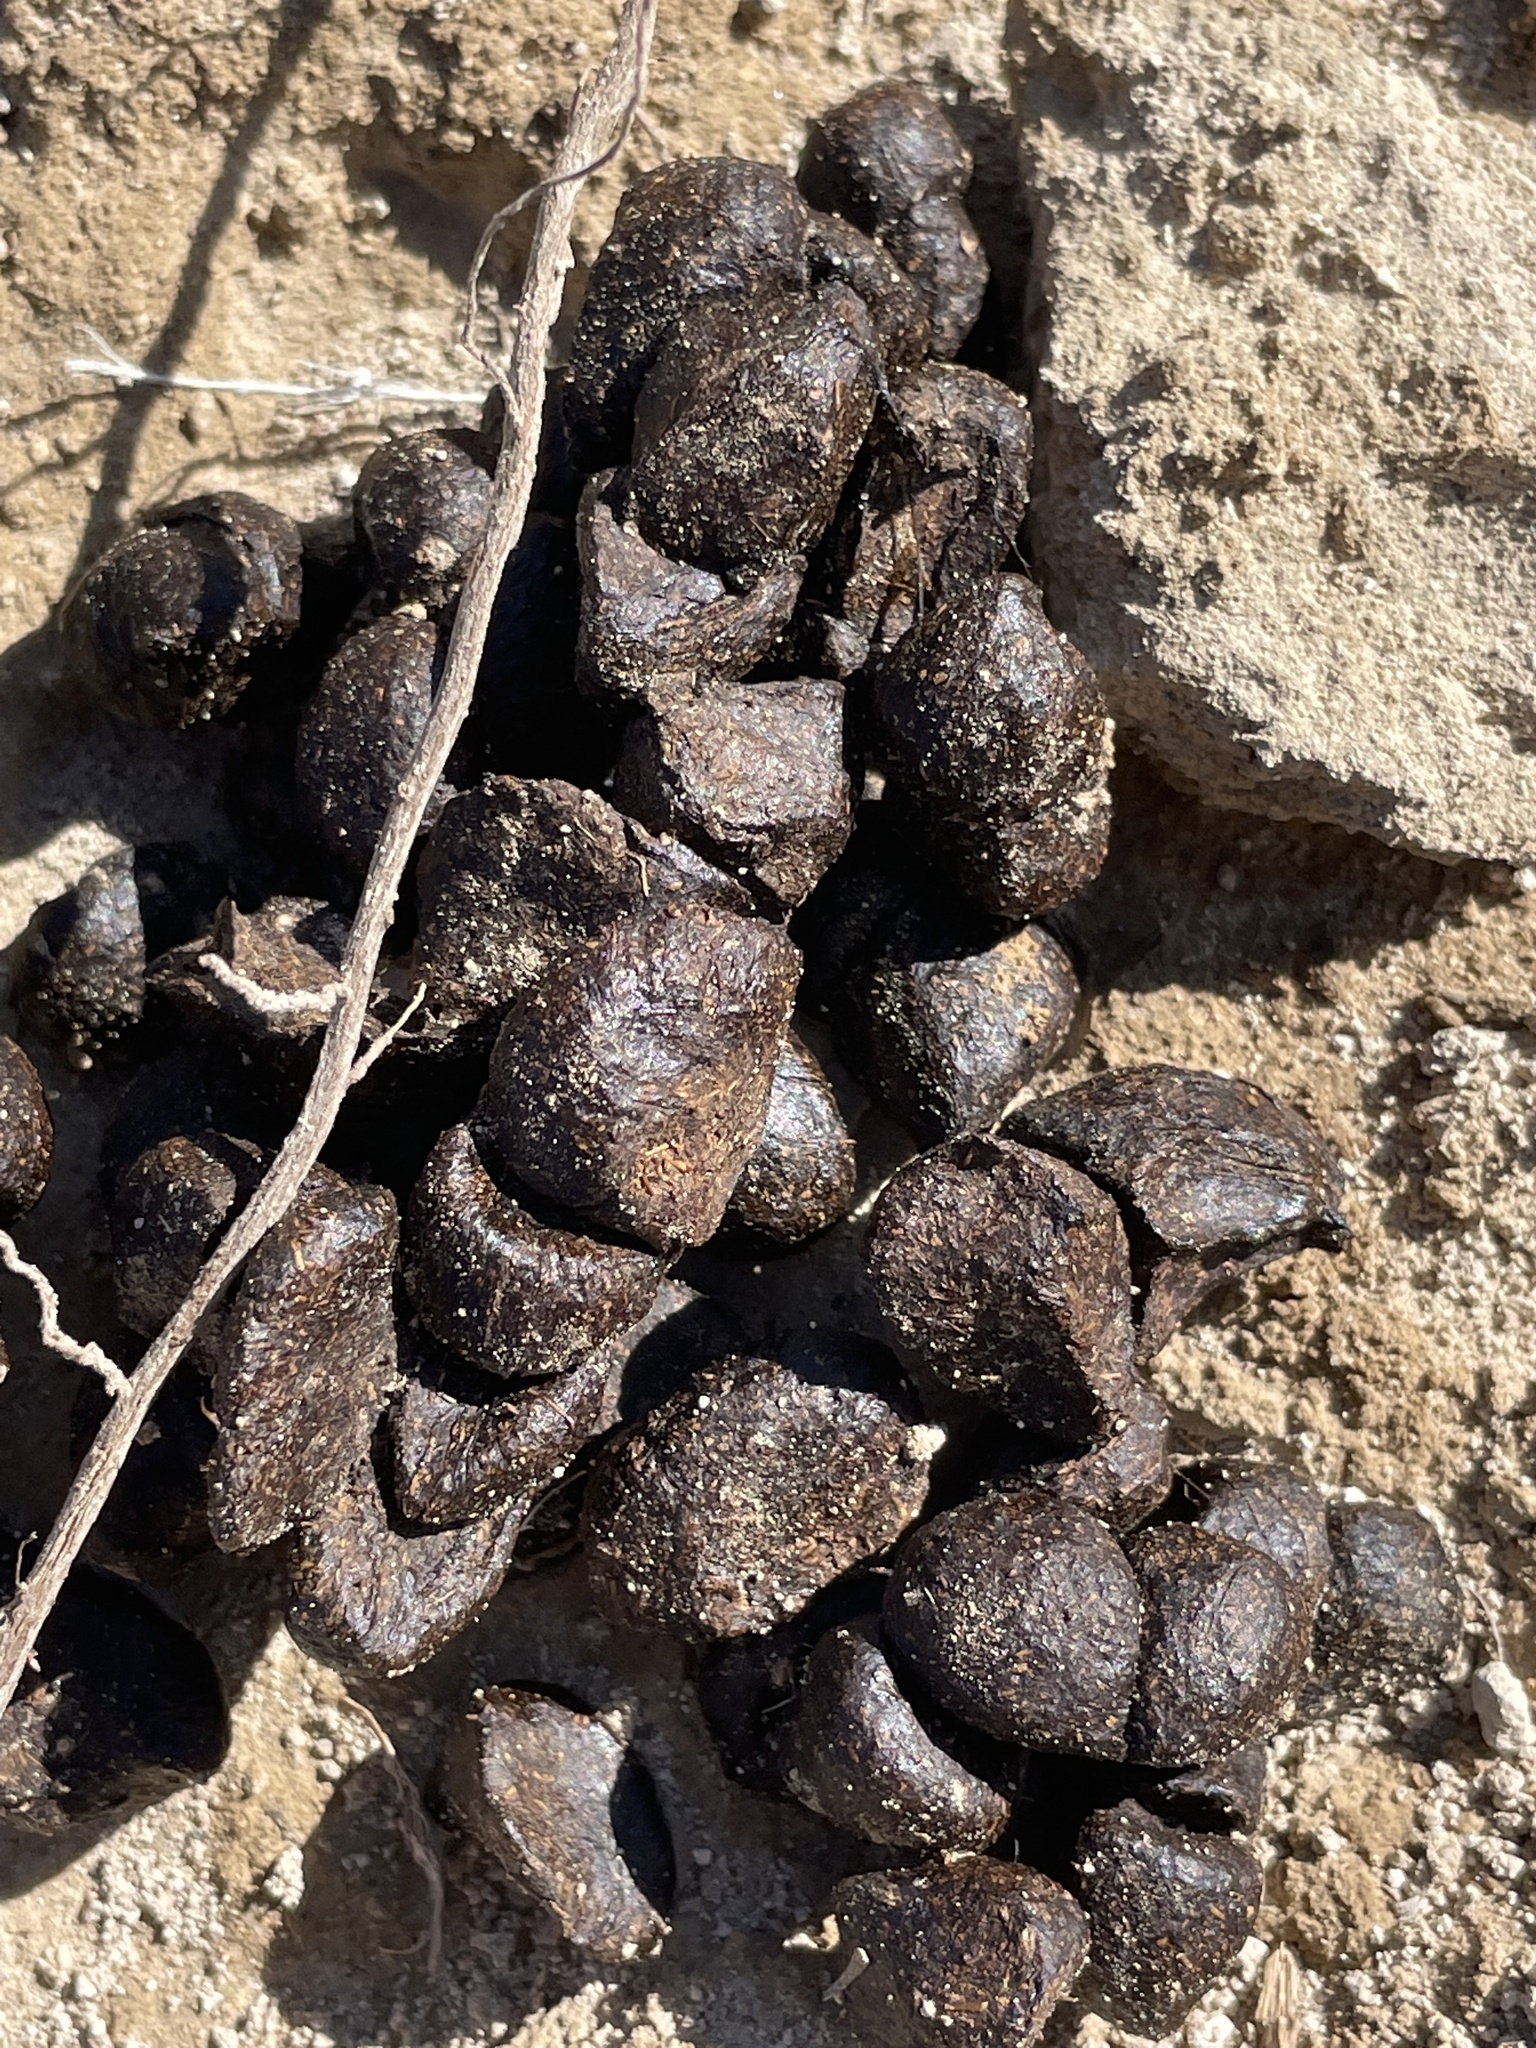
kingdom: Animalia
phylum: Chordata
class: Mammalia
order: Artiodactyla
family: Antilocapridae
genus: Antilocapra
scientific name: Antilocapra americana
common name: Pronghorn
